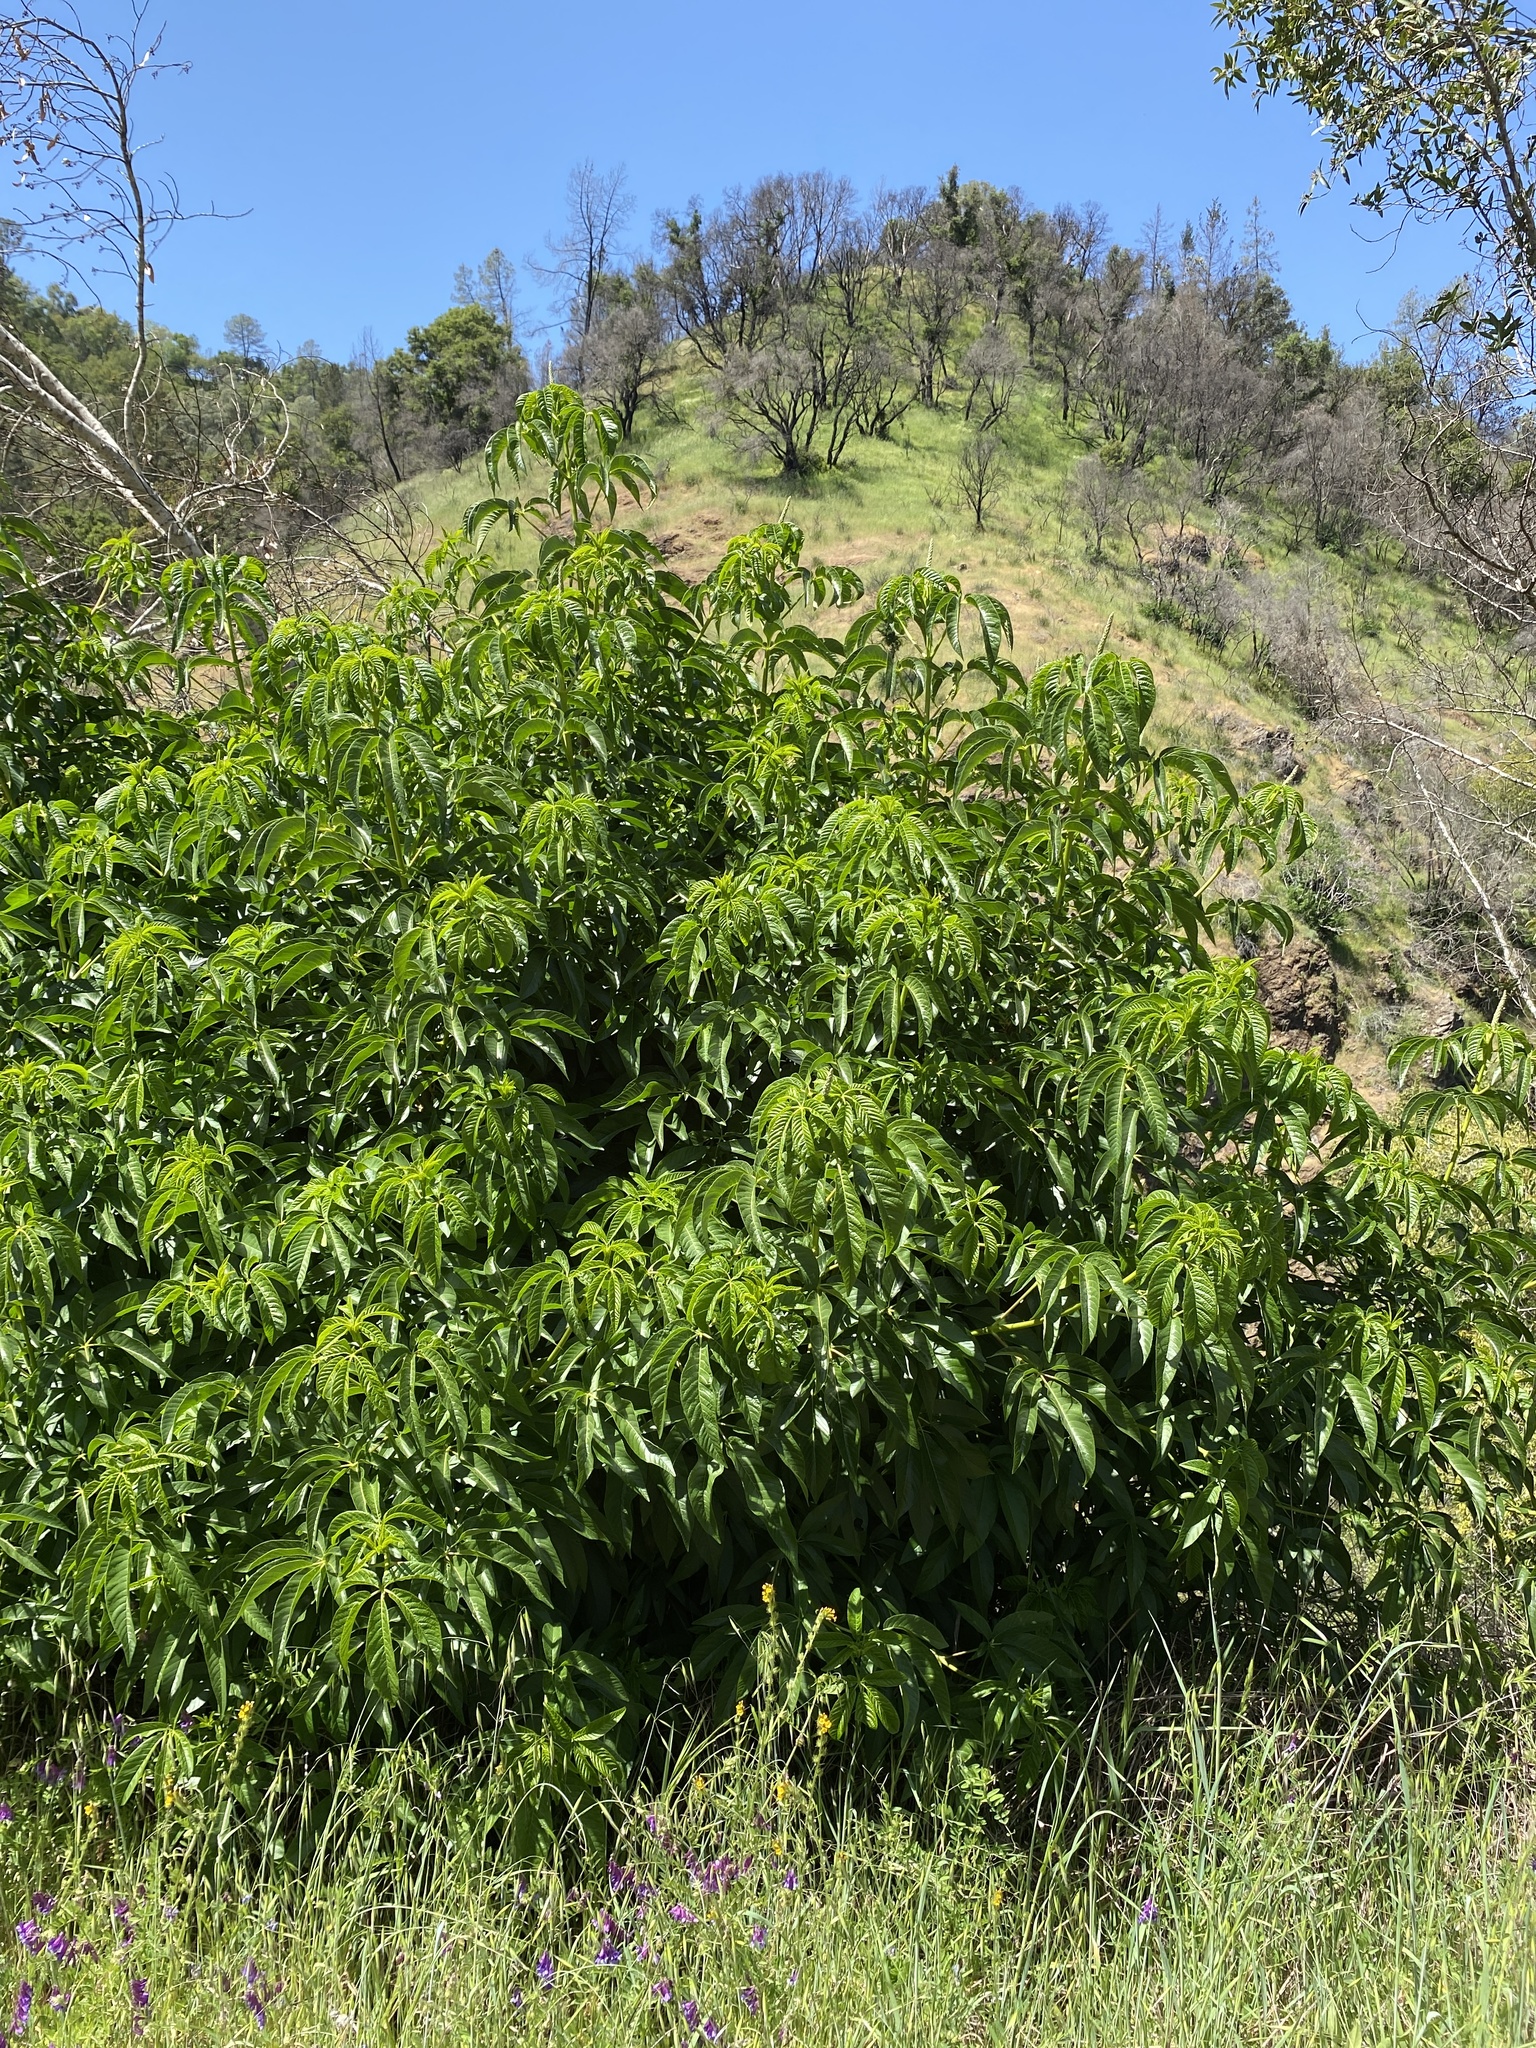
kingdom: Plantae
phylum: Tracheophyta
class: Magnoliopsida
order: Sapindales
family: Sapindaceae
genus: Aesculus
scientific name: Aesculus californica
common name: California buckeye
